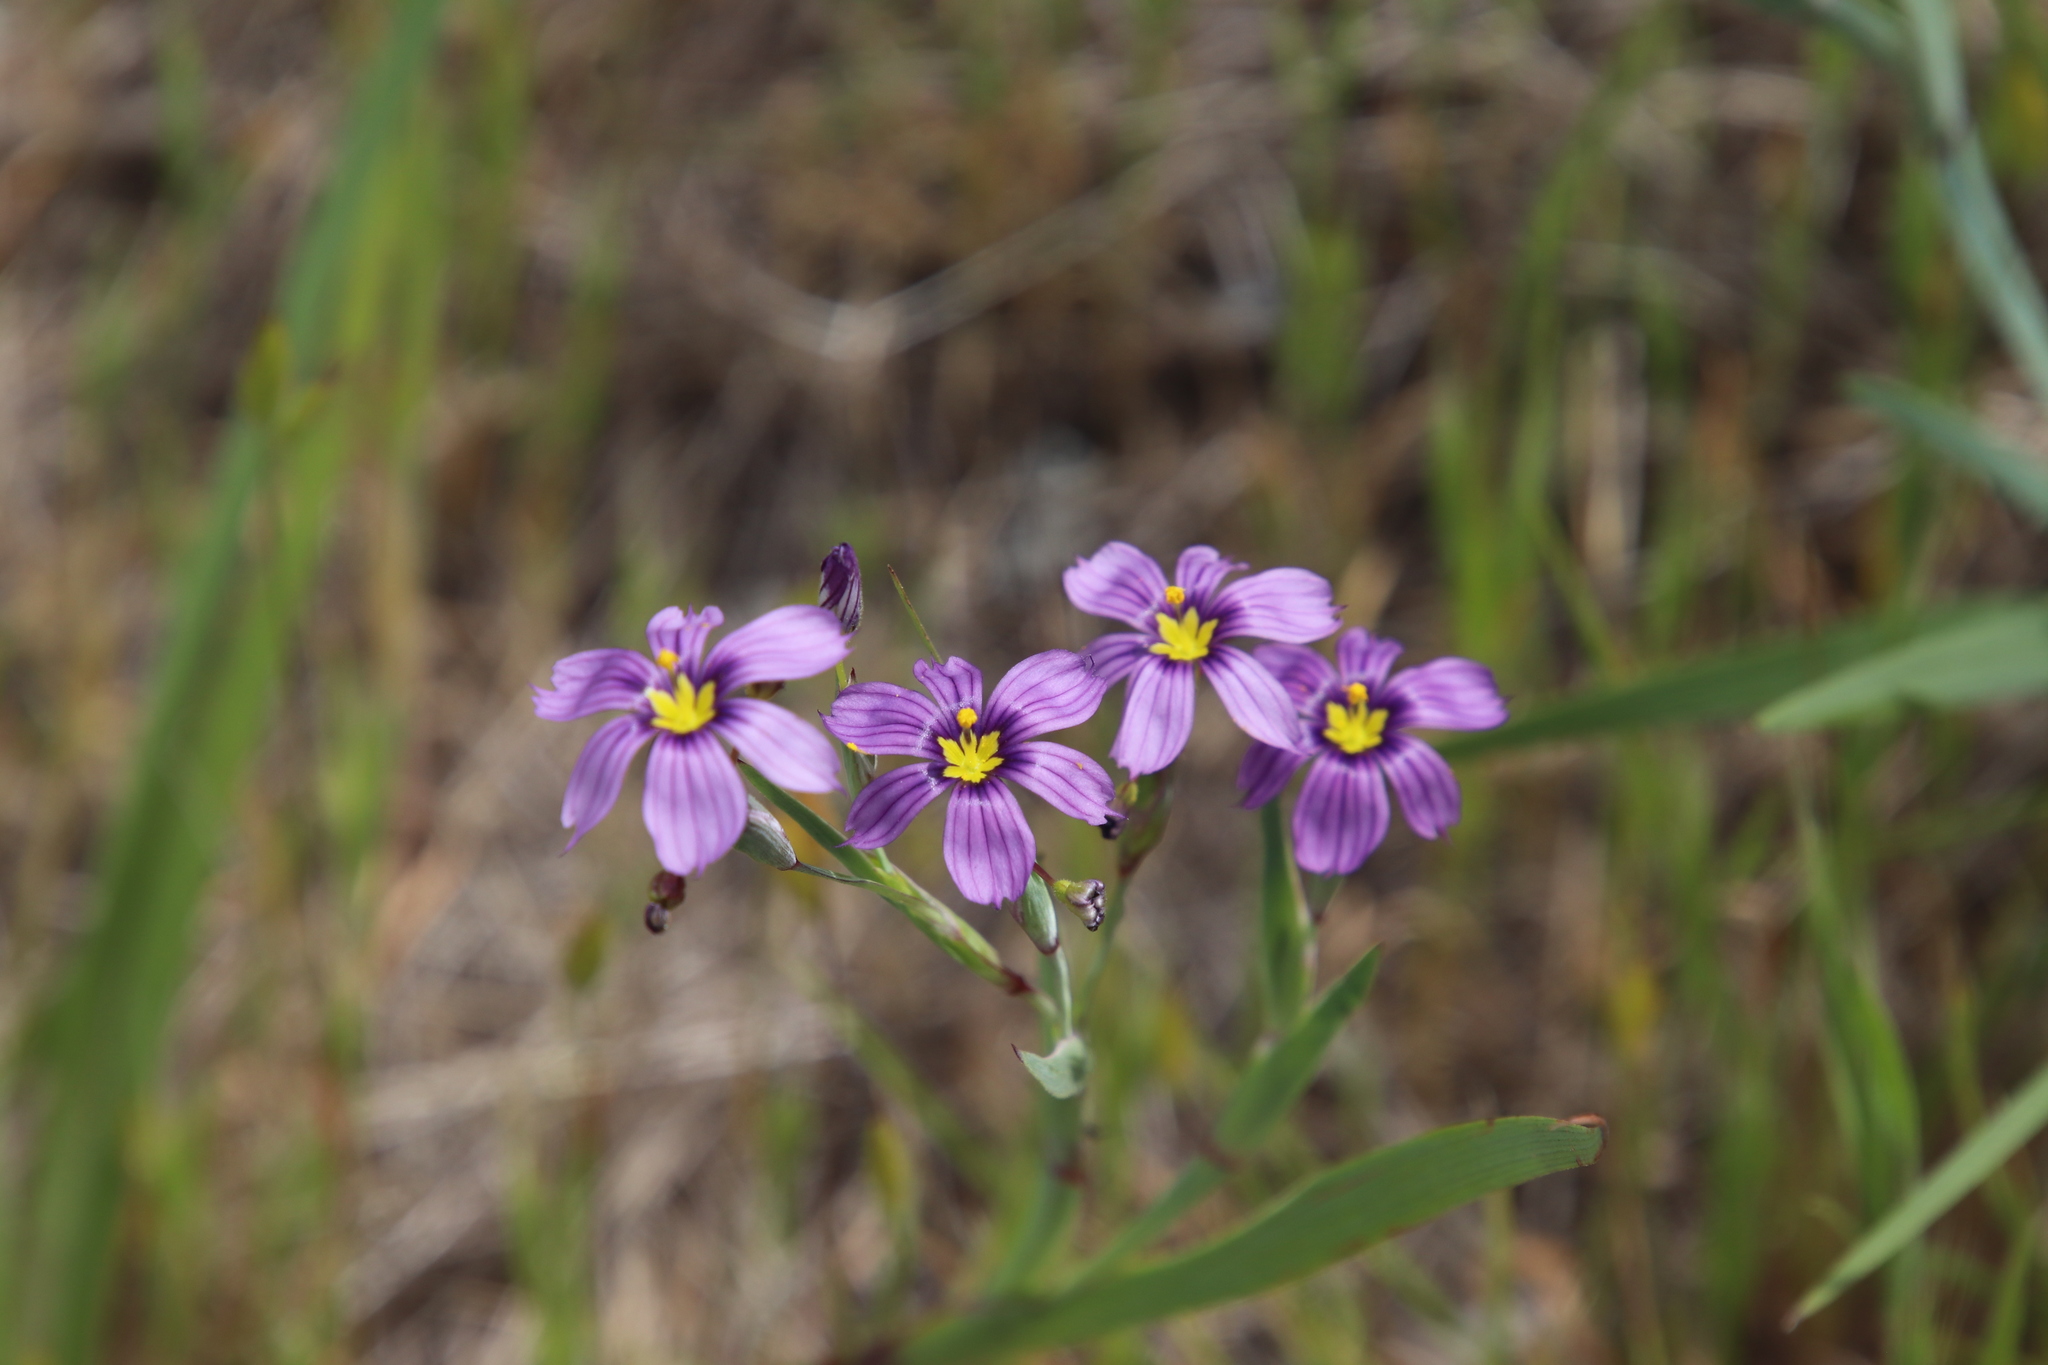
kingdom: Plantae
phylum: Tracheophyta
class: Liliopsida
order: Asparagales
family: Iridaceae
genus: Sisyrinchium
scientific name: Sisyrinchium bellum
